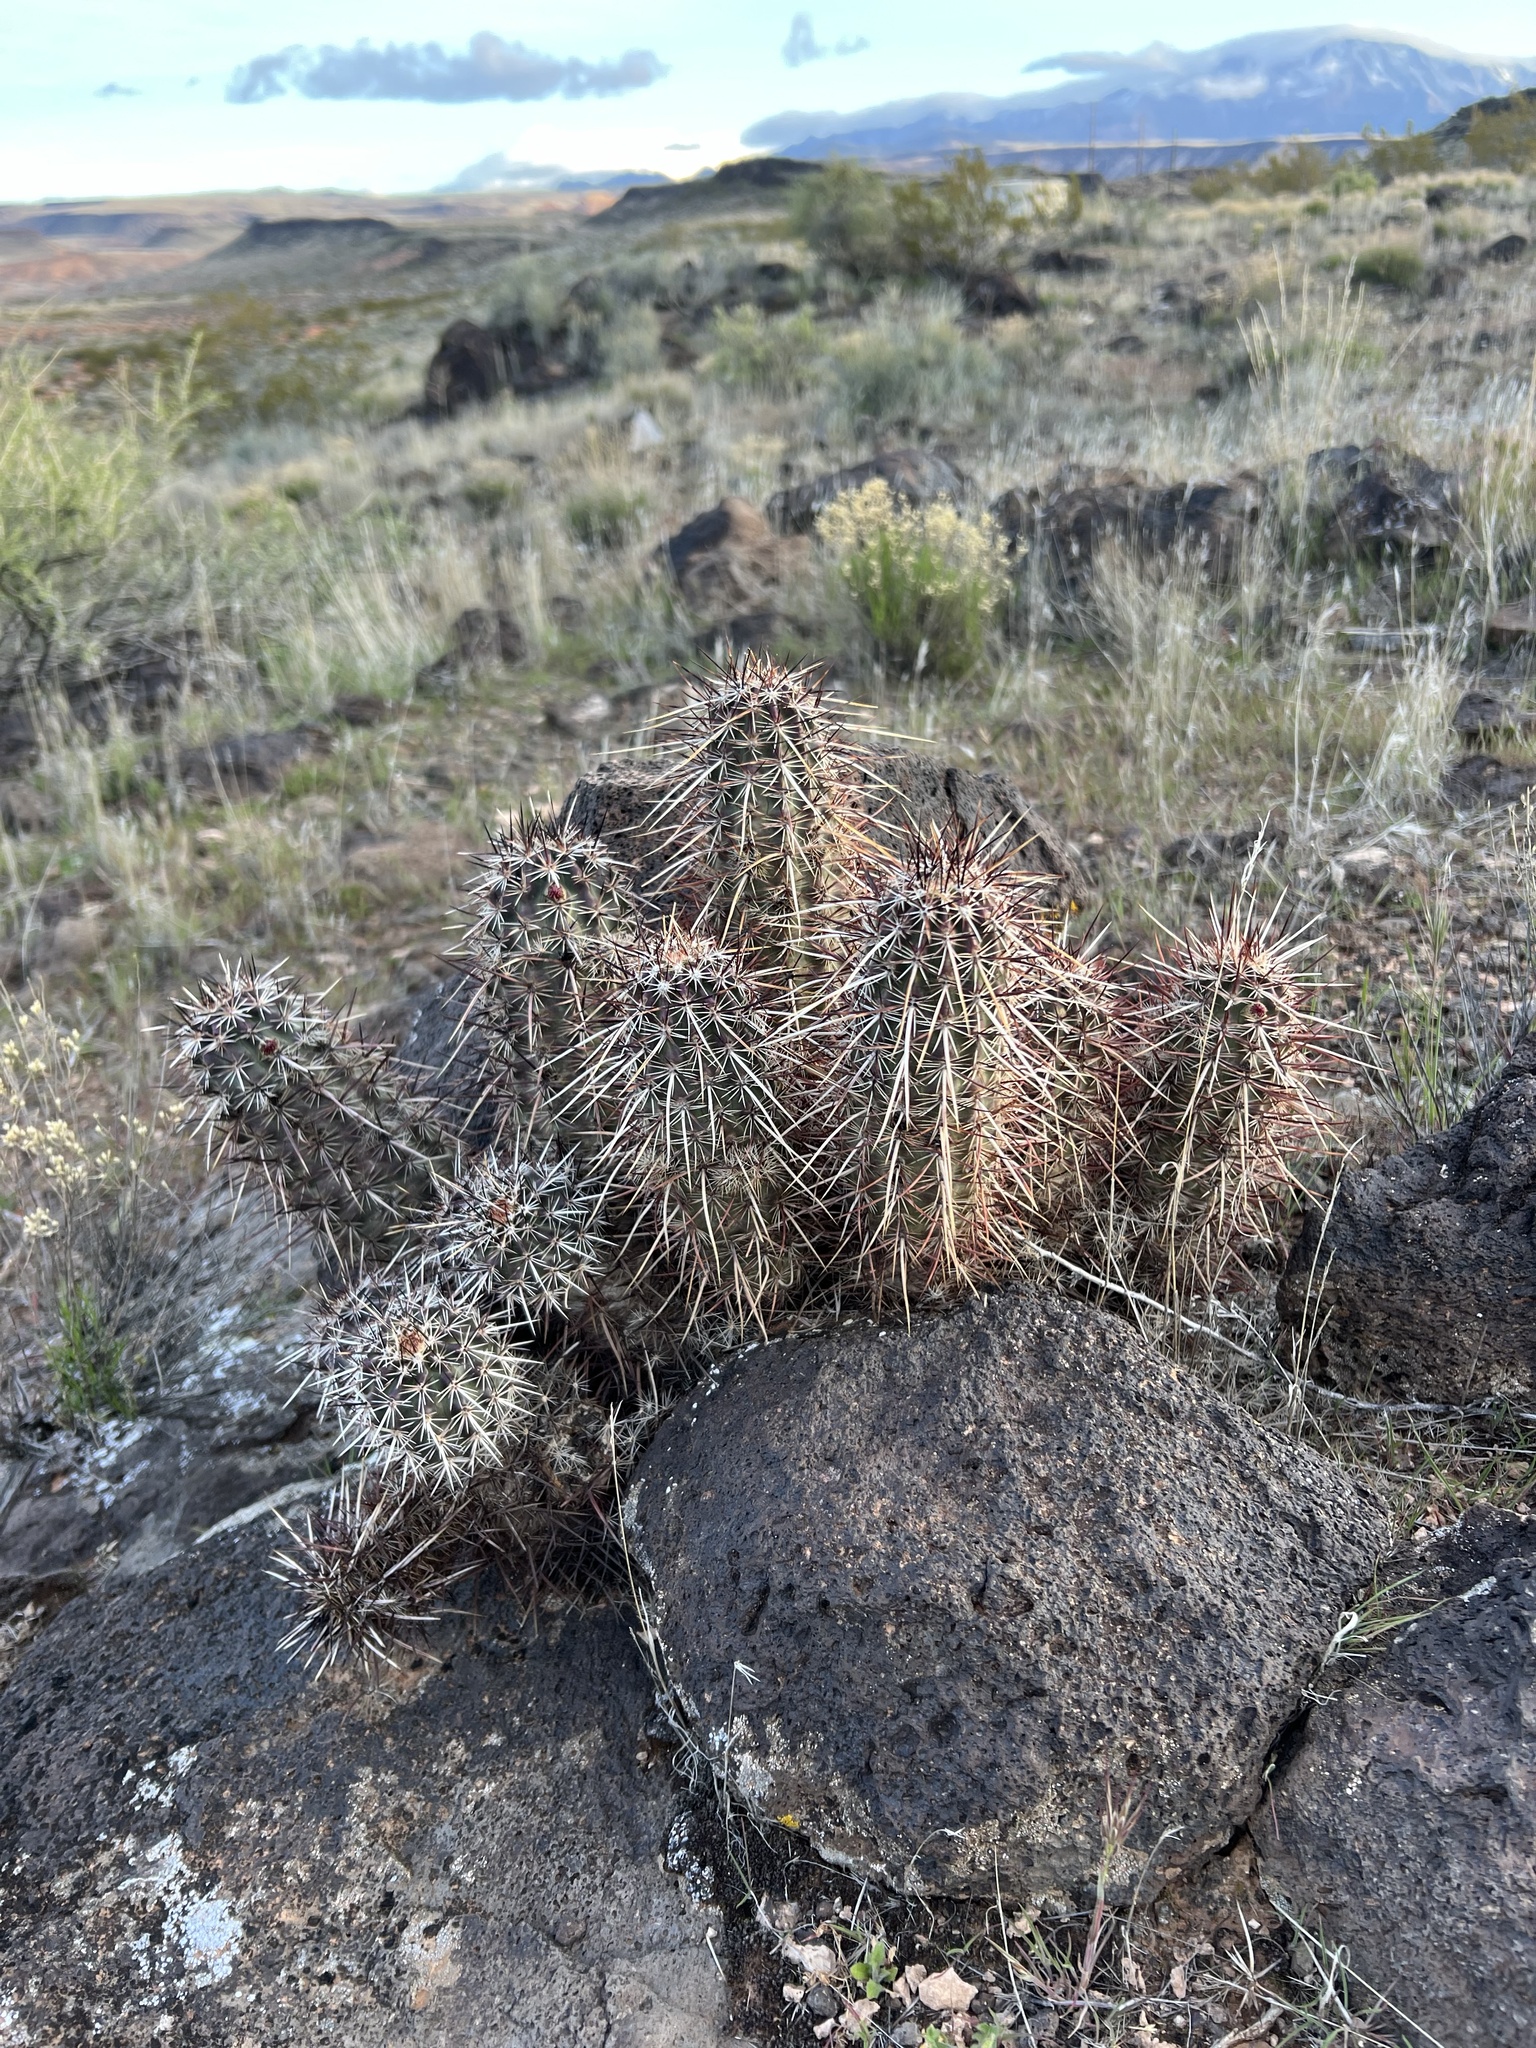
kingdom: Plantae
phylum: Tracheophyta
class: Magnoliopsida
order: Caryophyllales
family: Cactaceae
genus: Echinocereus
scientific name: Echinocereus relictus
